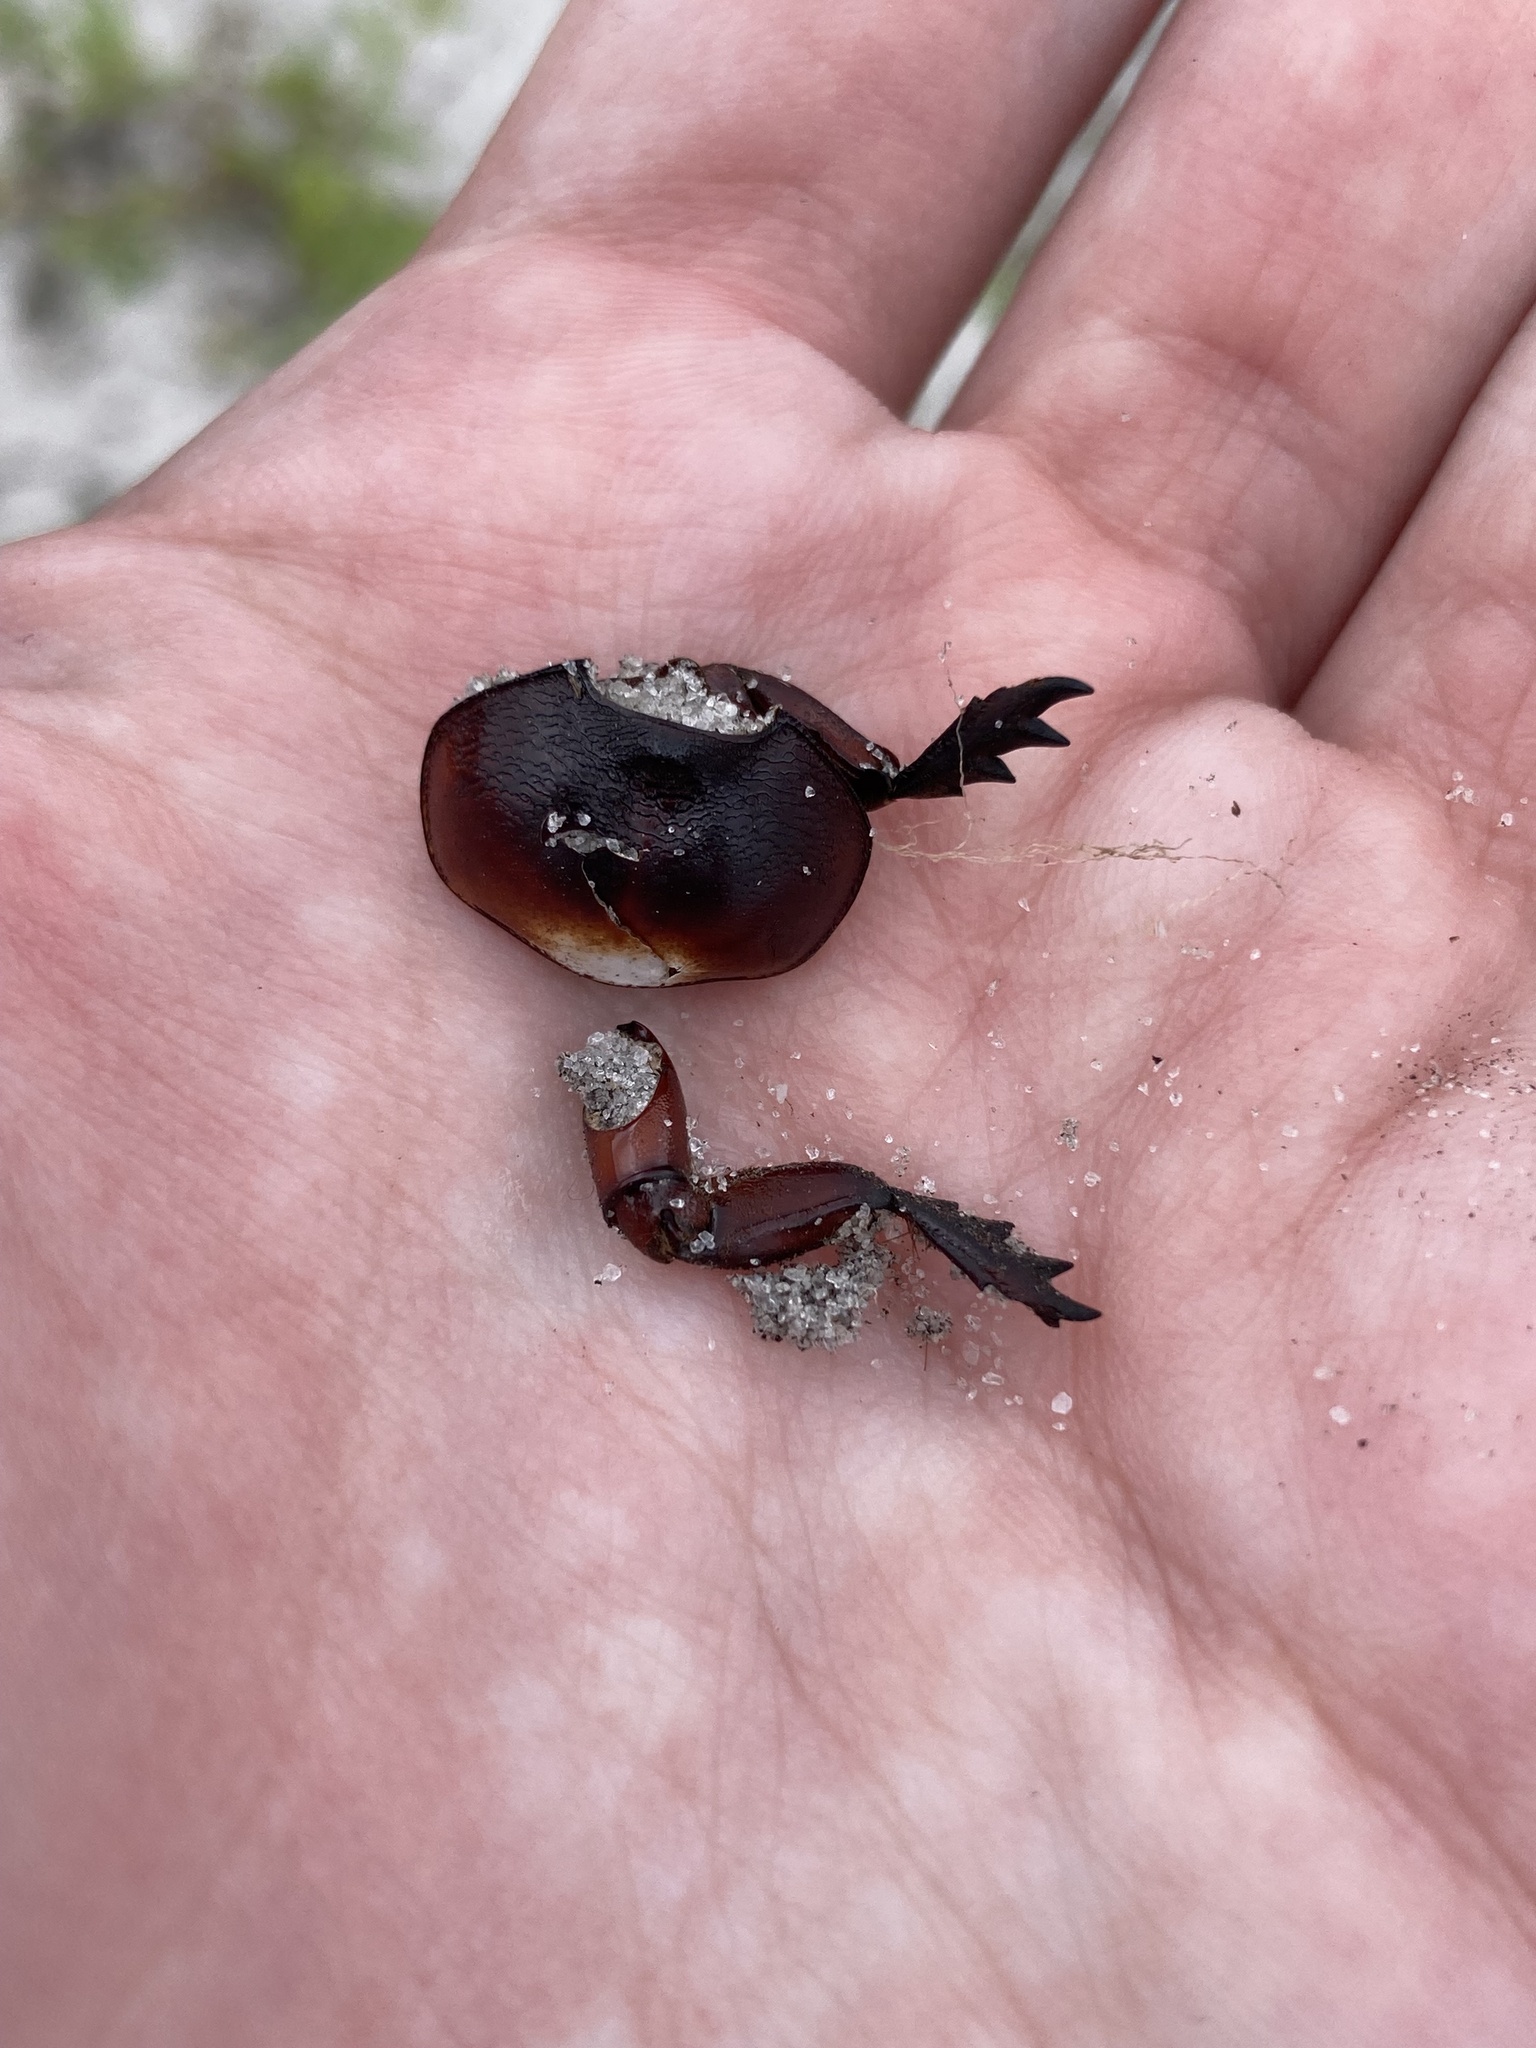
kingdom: Animalia
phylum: Arthropoda
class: Insecta
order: Coleoptera
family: Scarabaeidae
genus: Strategus
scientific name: Strategus antaeus
